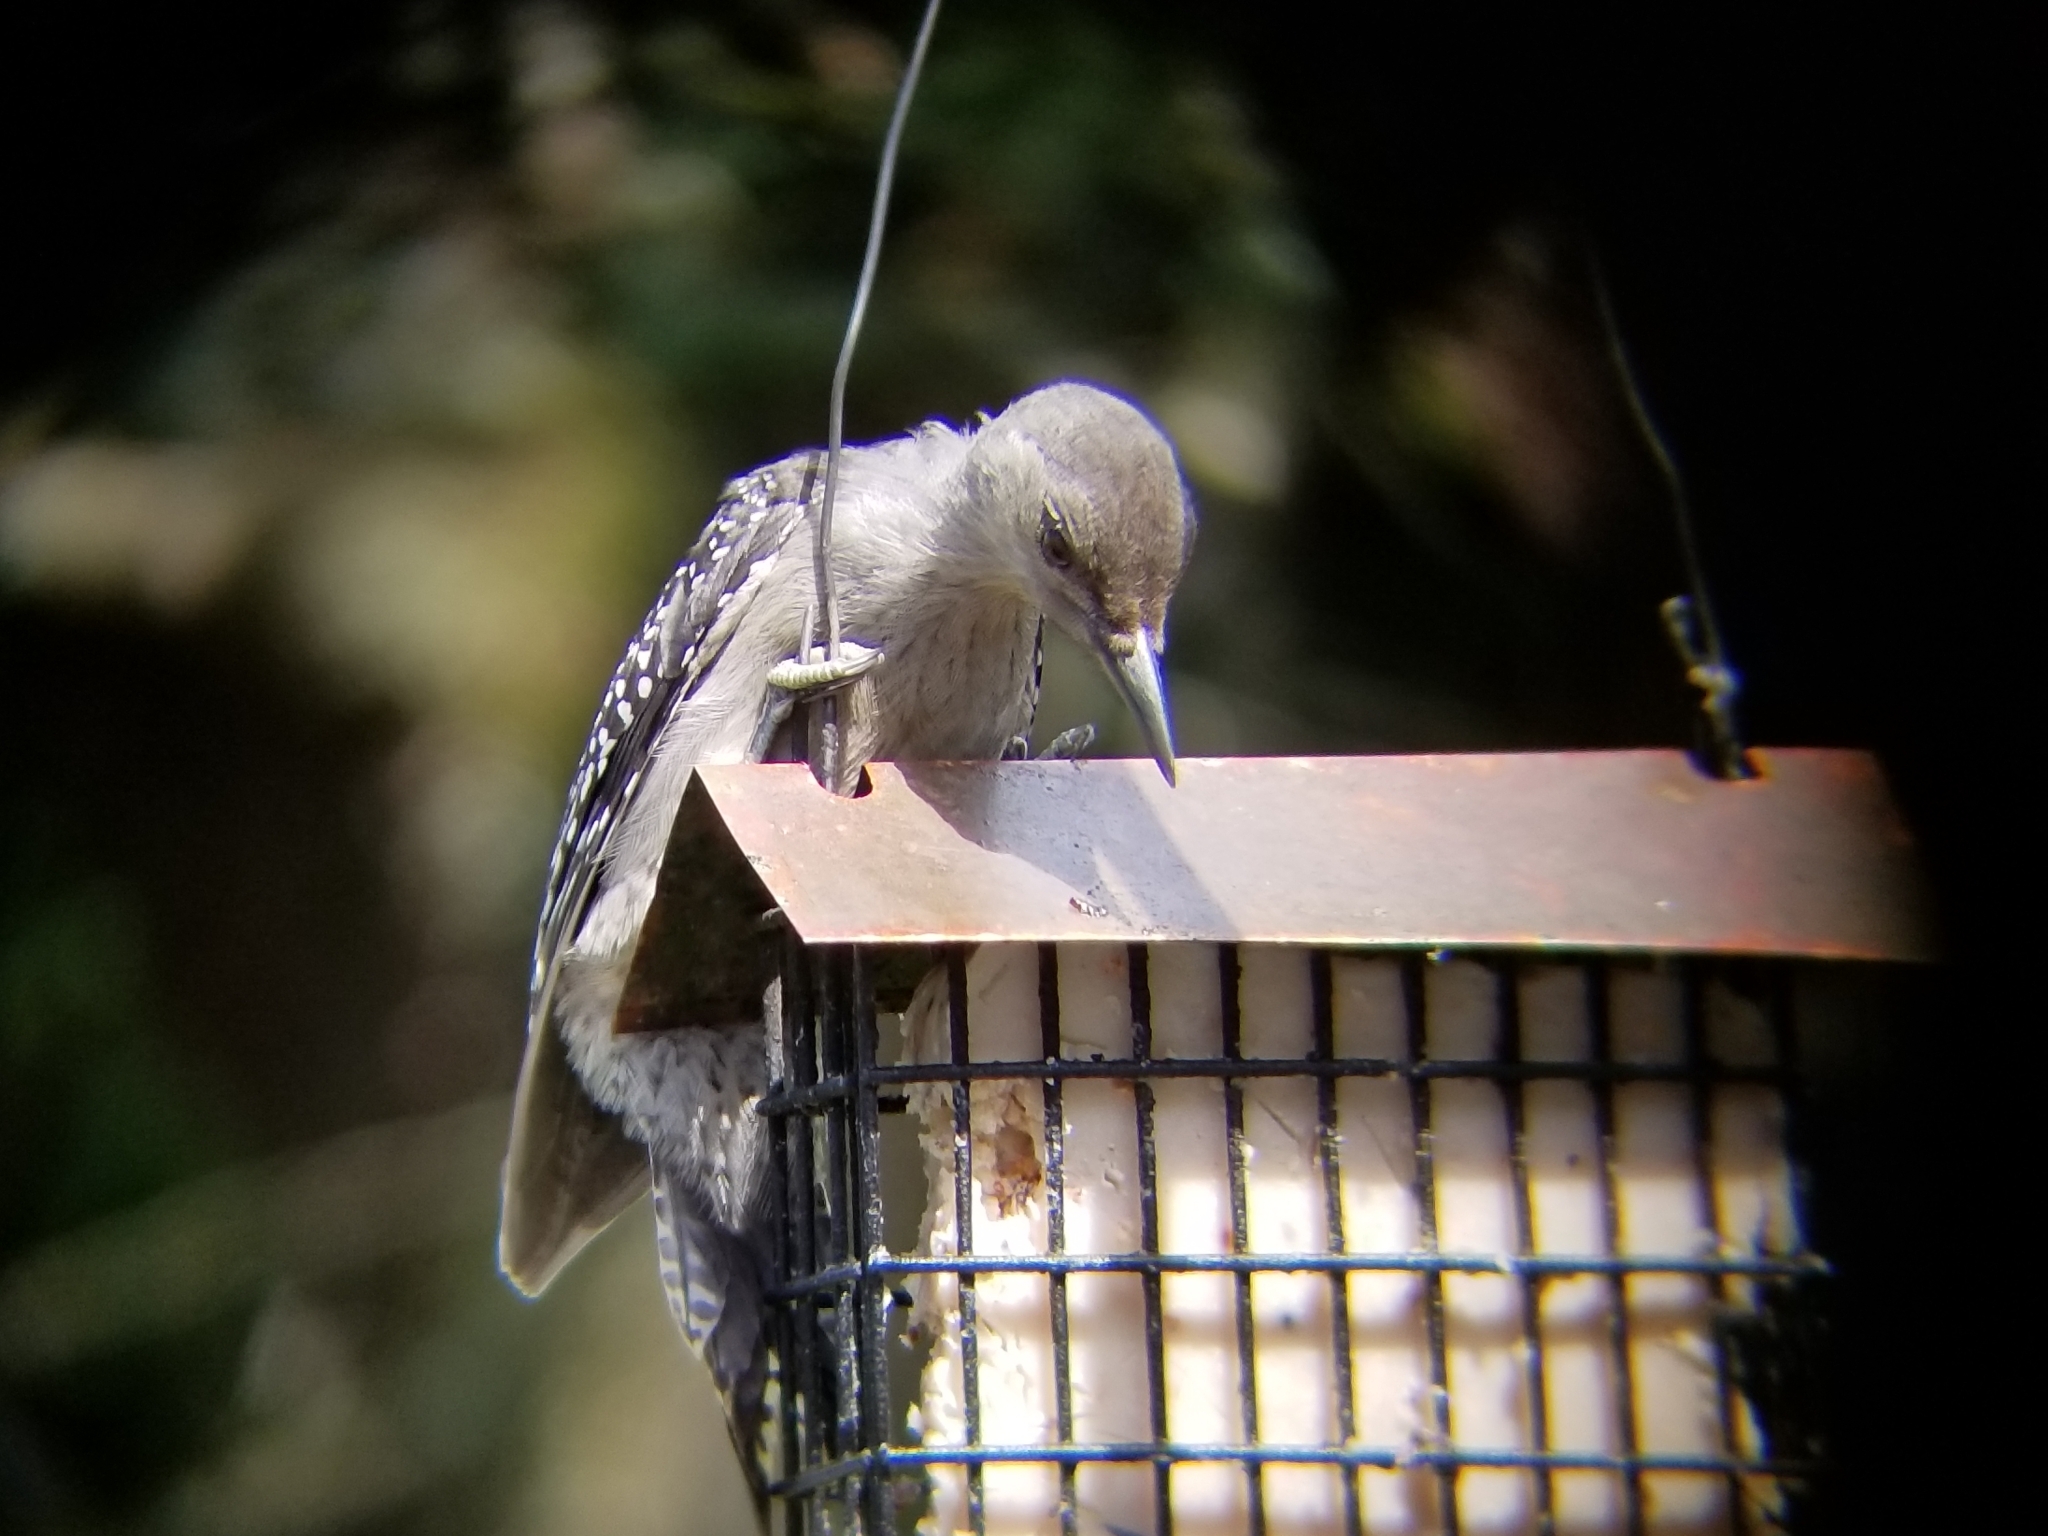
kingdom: Animalia
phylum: Chordata
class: Aves
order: Piciformes
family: Picidae
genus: Melanerpes
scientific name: Melanerpes carolinus
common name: Red-bellied woodpecker
